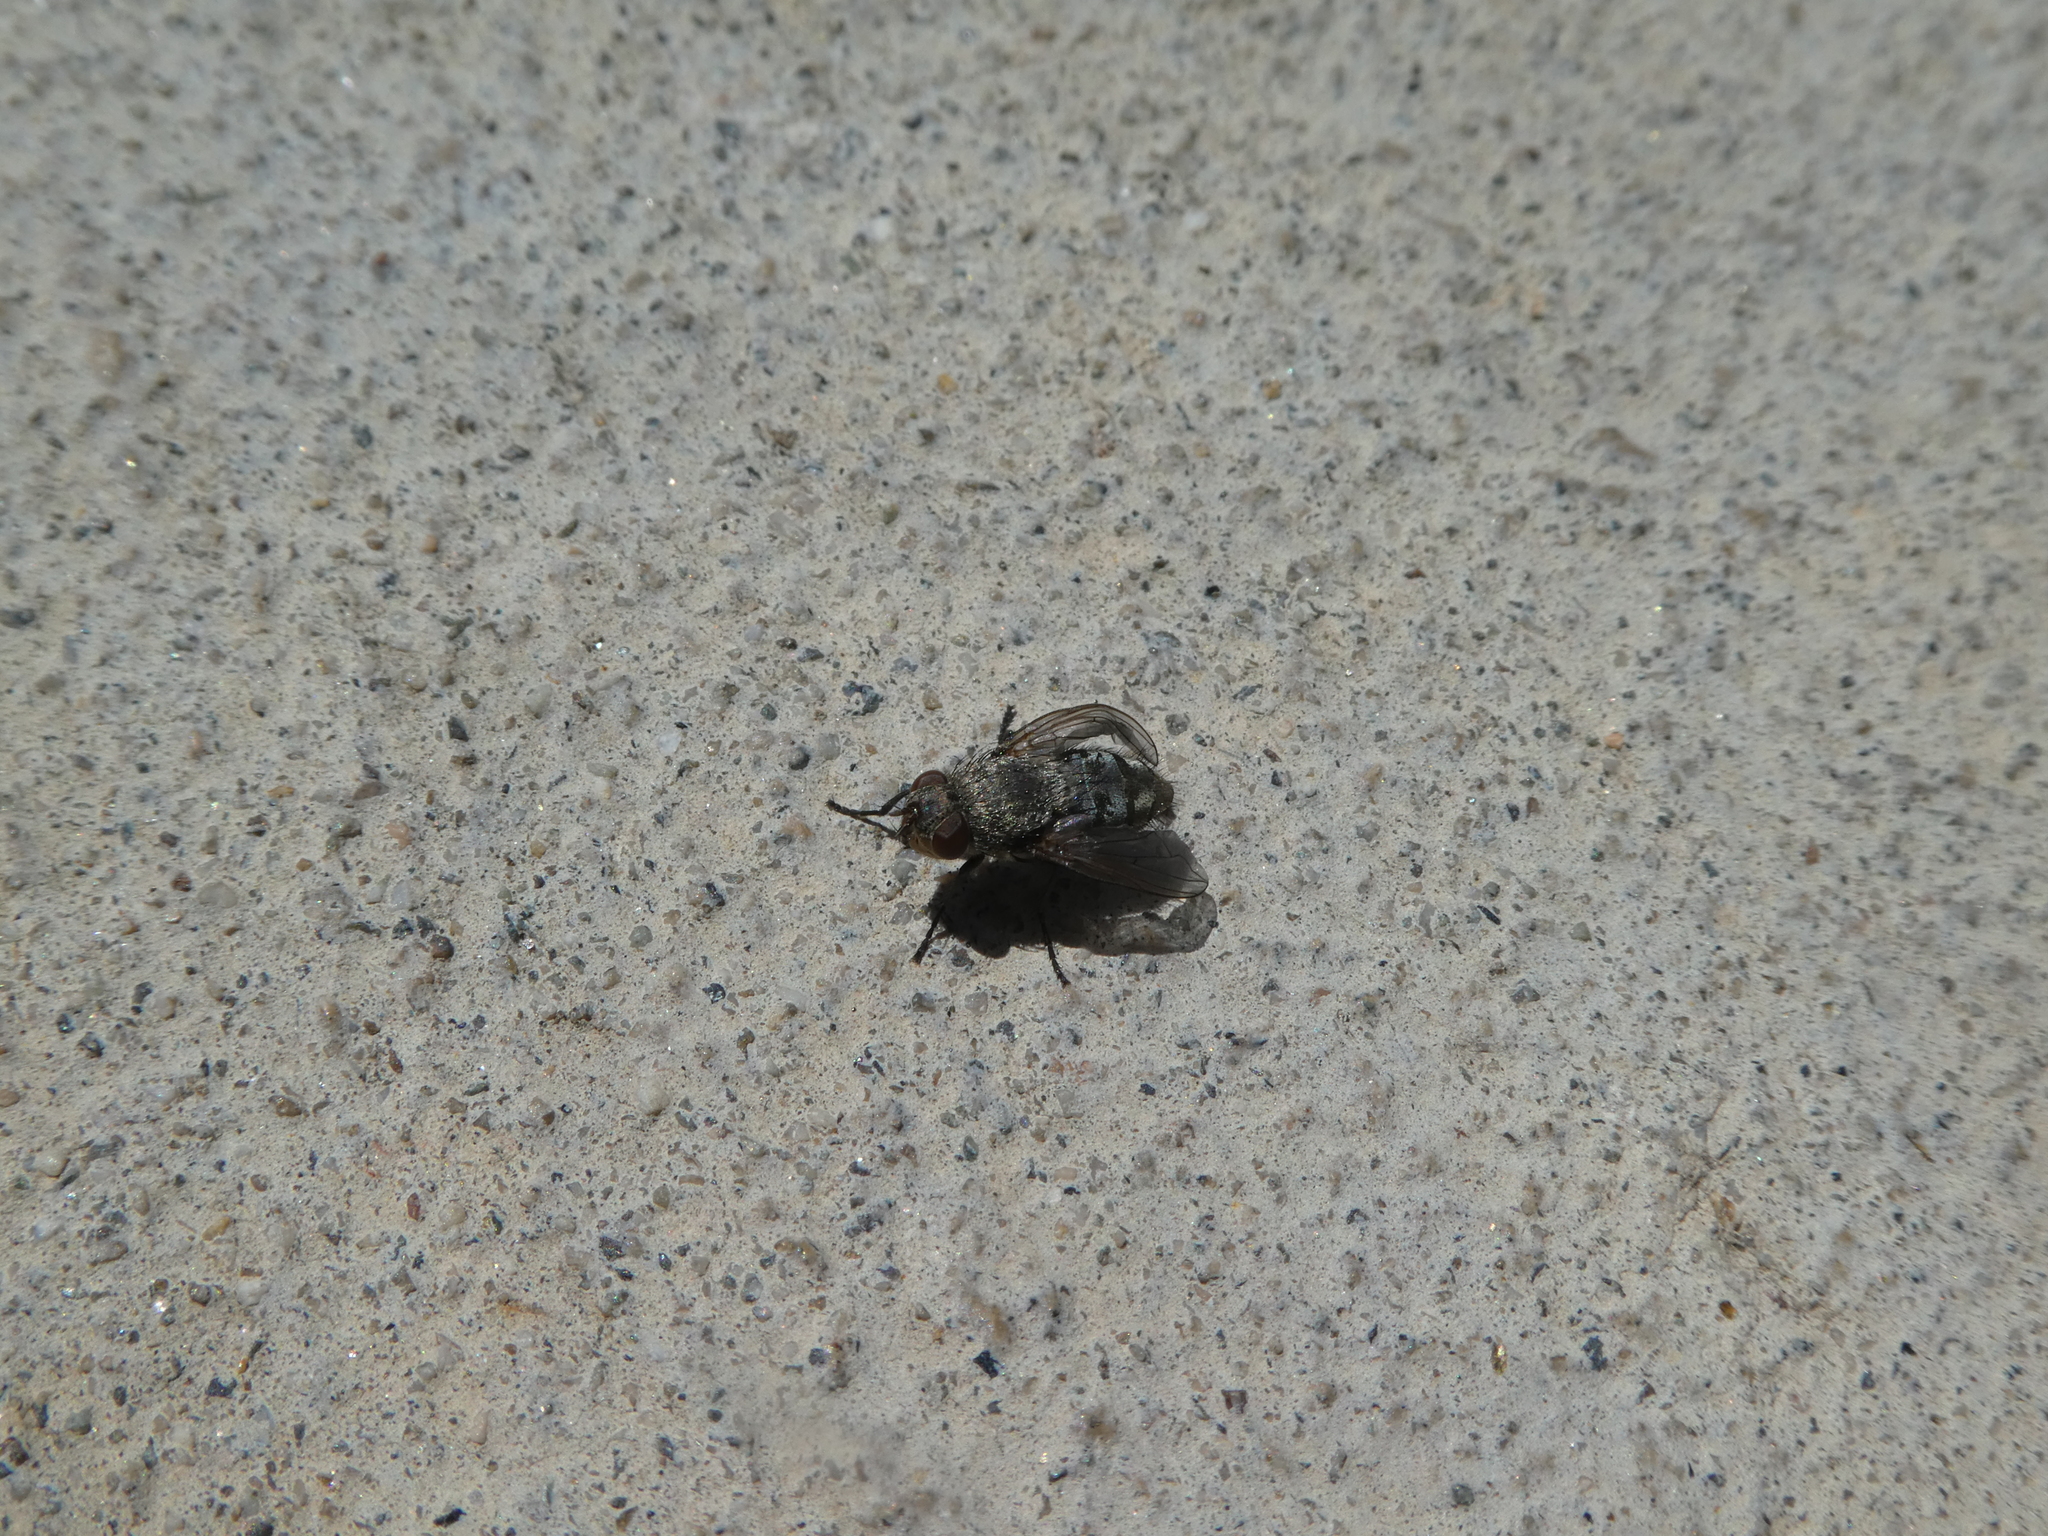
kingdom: Animalia
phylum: Arthropoda
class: Insecta
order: Diptera
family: Polleniidae
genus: Pollenia
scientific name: Pollenia
